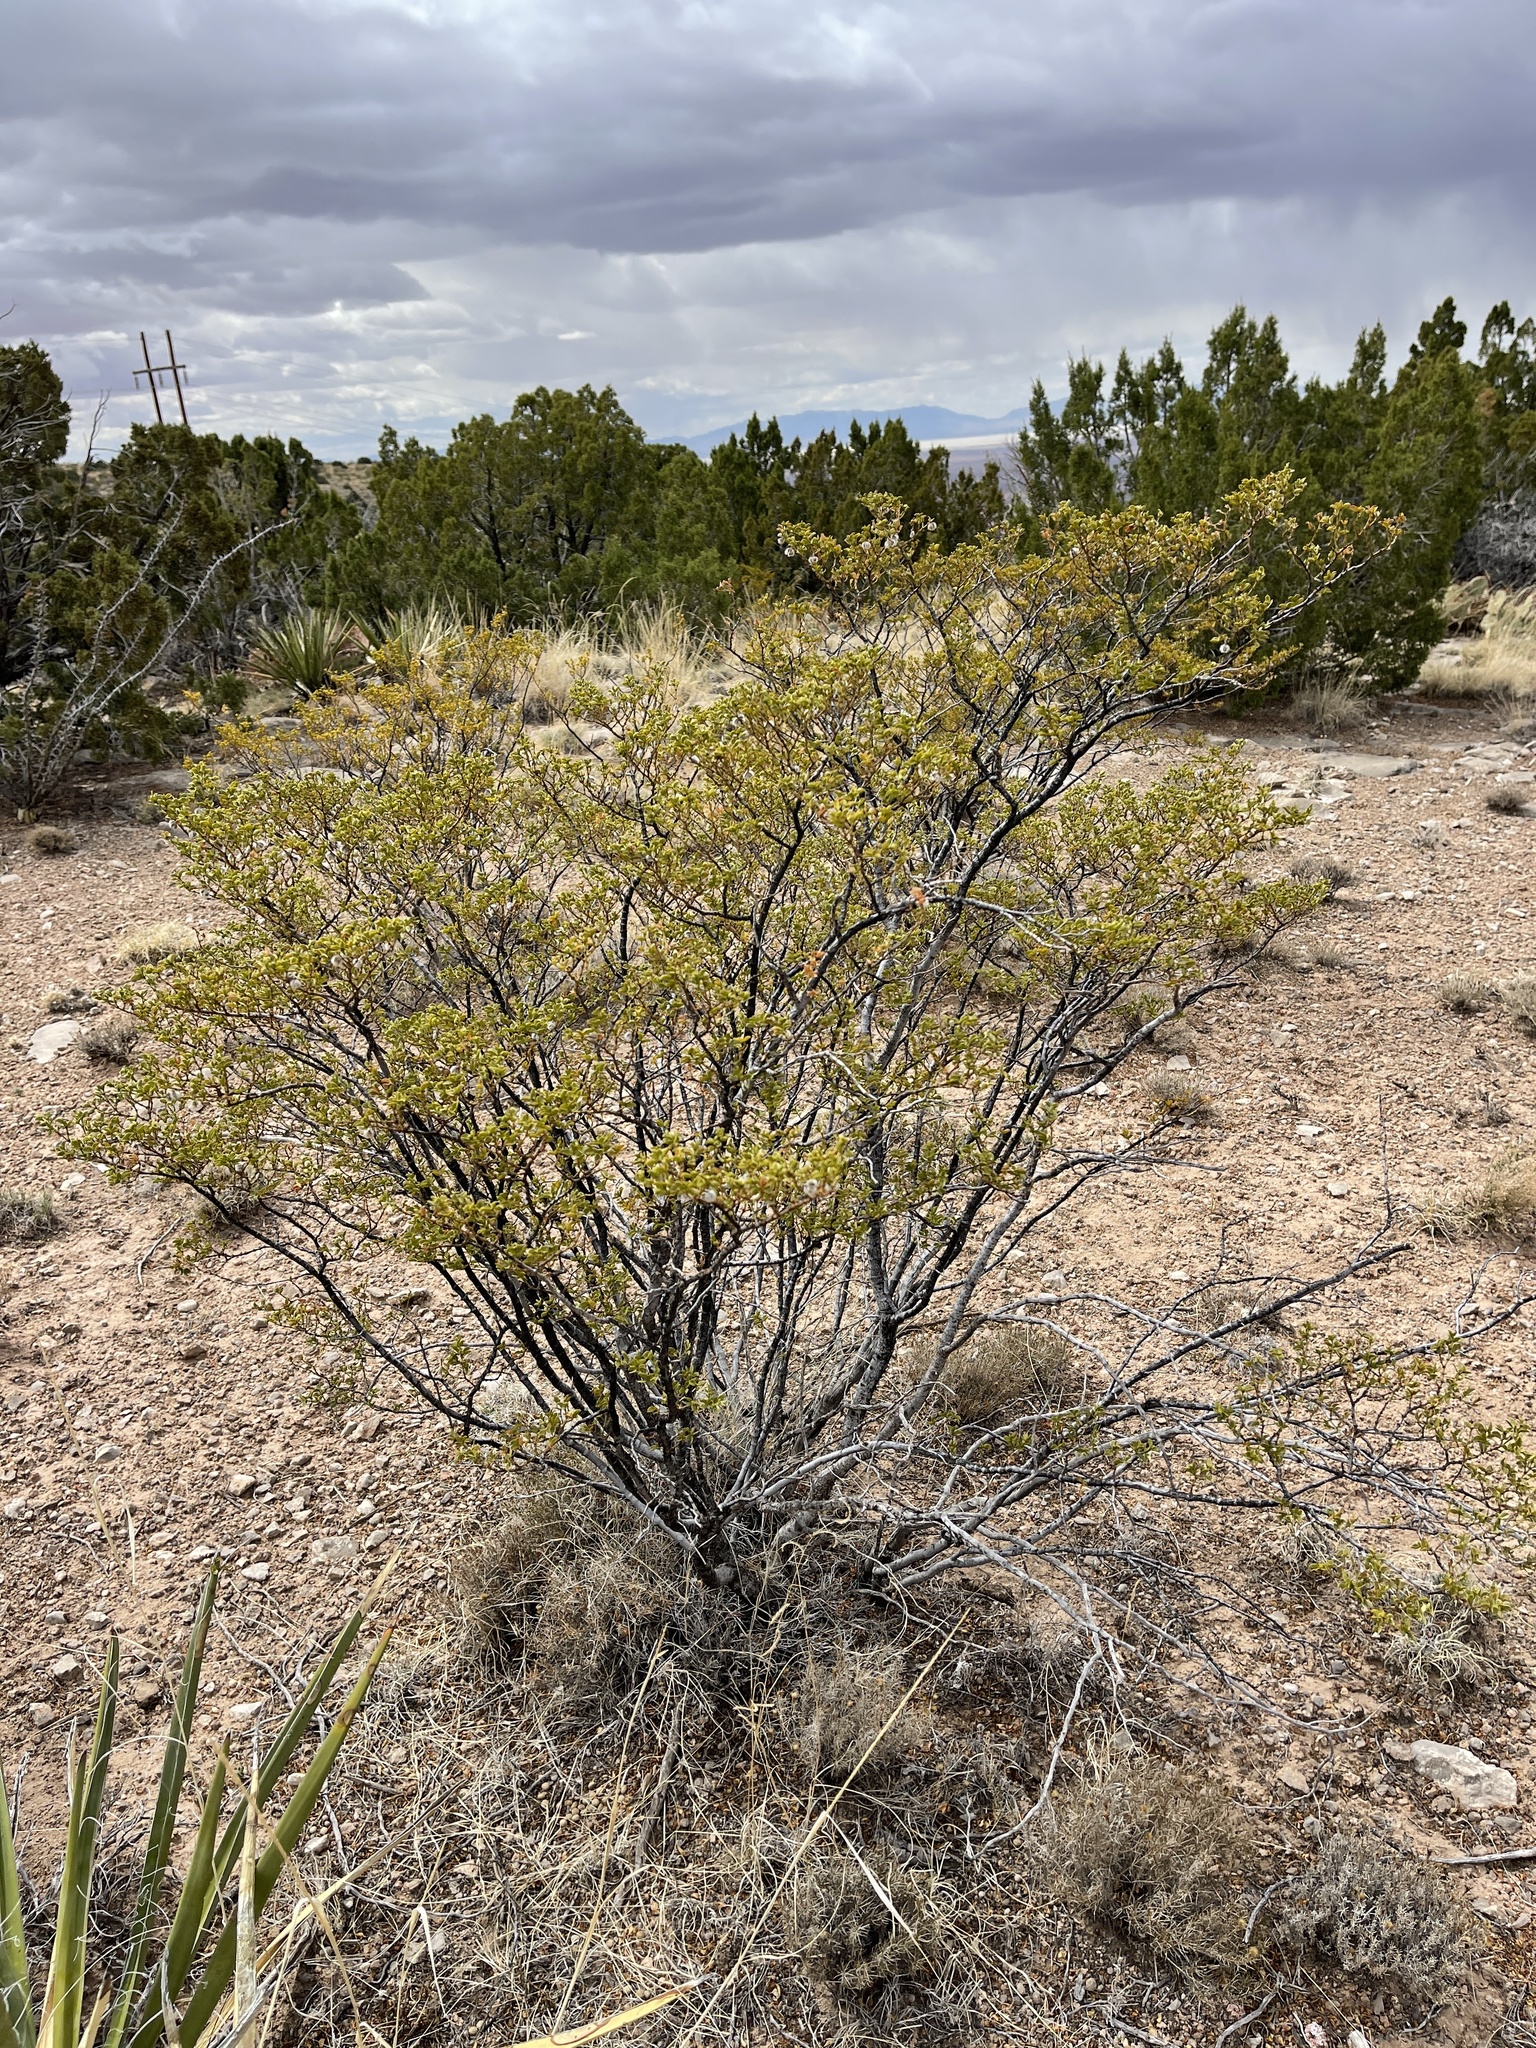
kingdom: Plantae
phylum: Tracheophyta
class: Magnoliopsida
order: Zygophyllales
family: Zygophyllaceae
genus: Larrea
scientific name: Larrea tridentata
